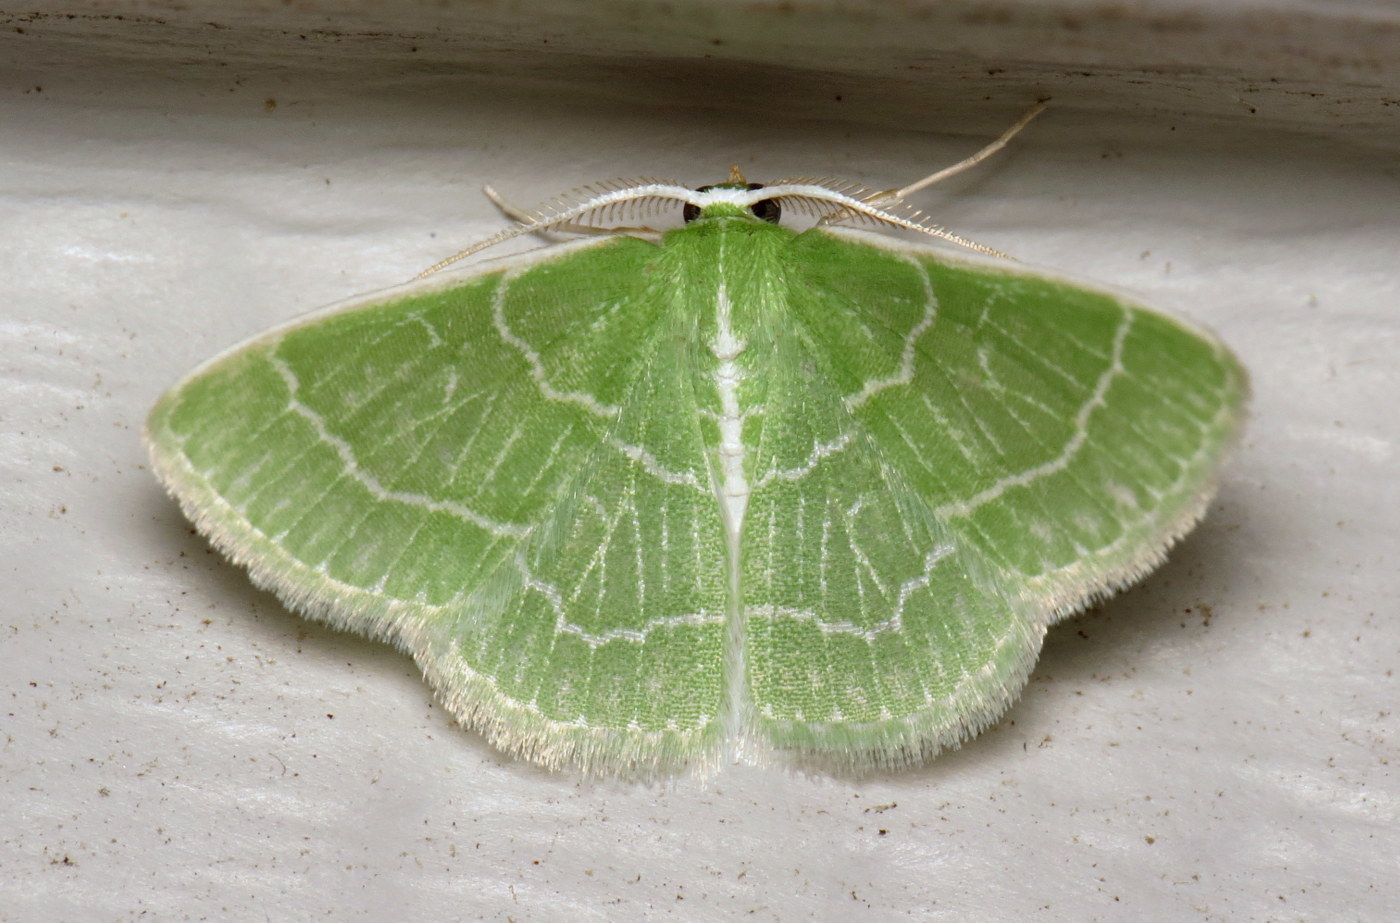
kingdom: Animalia
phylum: Arthropoda
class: Insecta
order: Lepidoptera
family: Geometridae
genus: Synchlora
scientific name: Synchlora aerata
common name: Wavy-lined emerald
